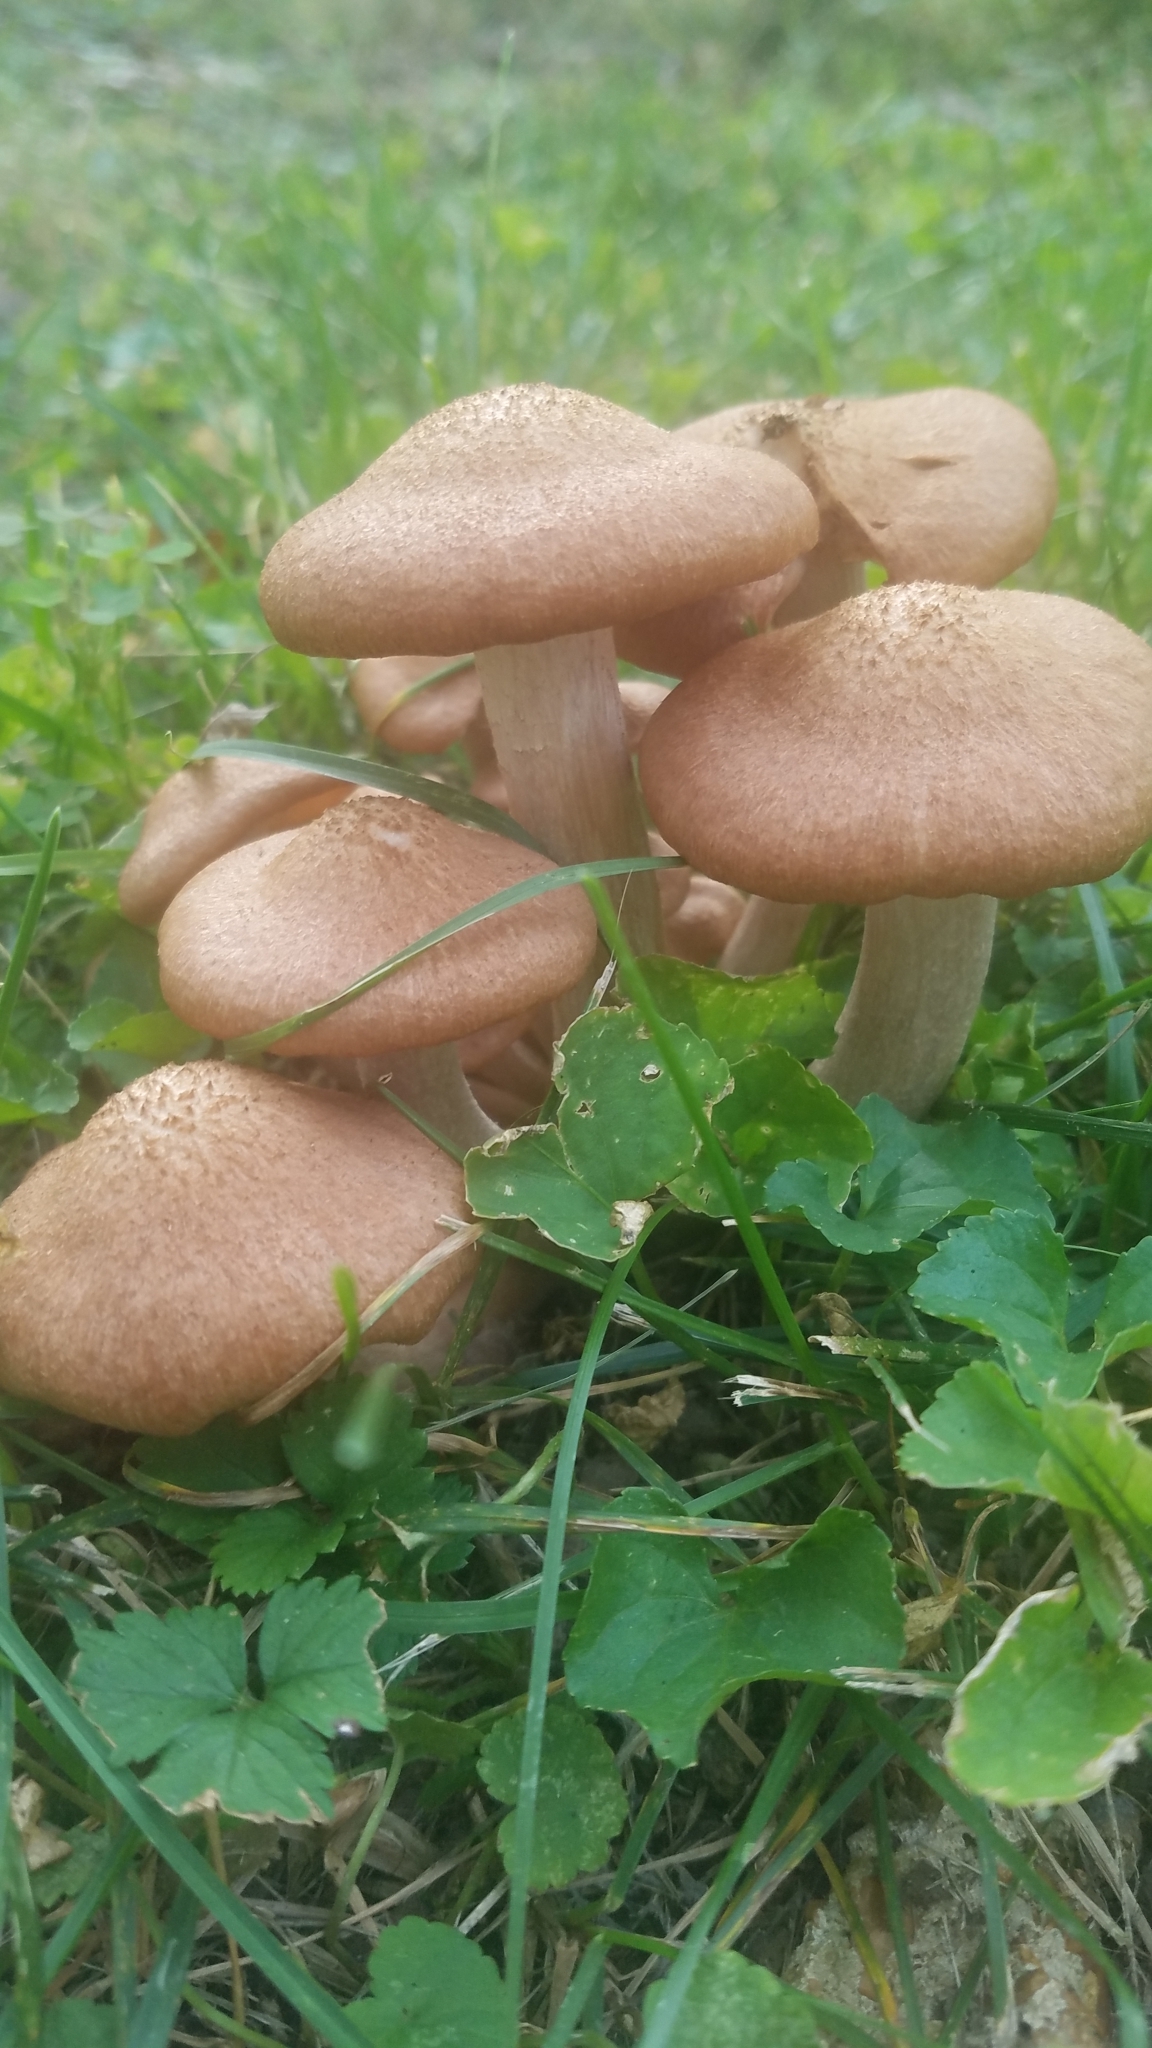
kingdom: Fungi
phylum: Basidiomycota
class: Agaricomycetes
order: Agaricales
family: Physalacriaceae
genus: Desarmillaria
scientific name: Desarmillaria caespitosa
